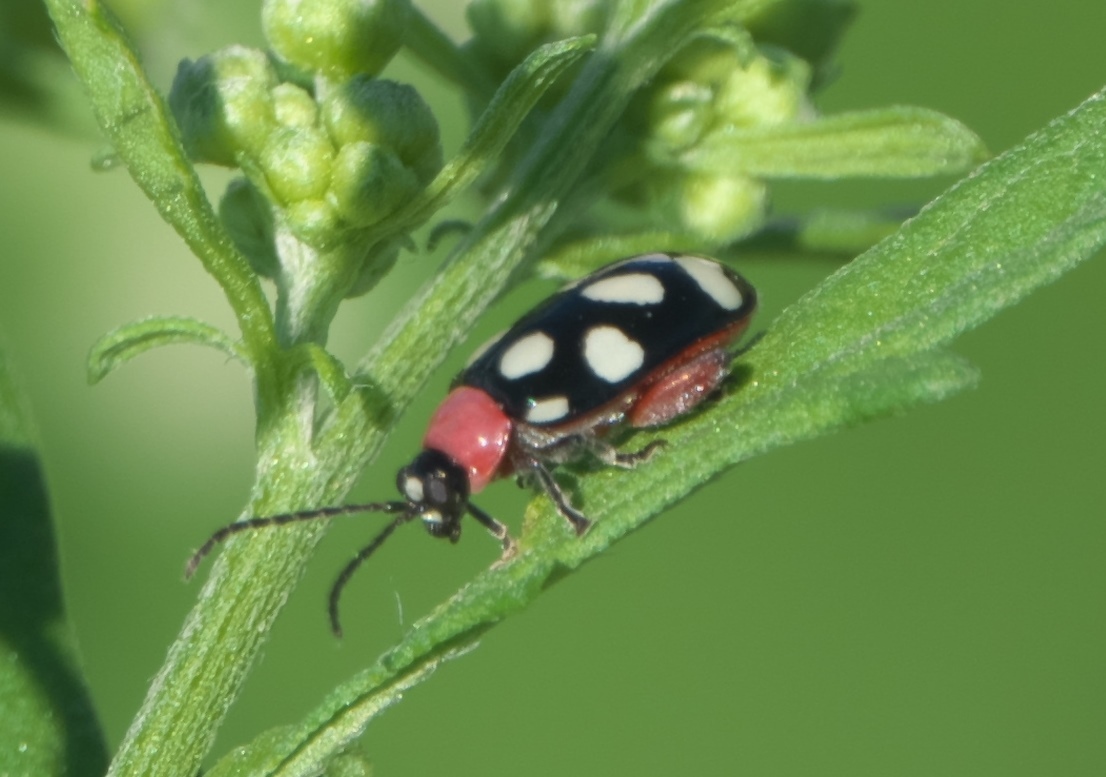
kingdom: Animalia
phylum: Arthropoda
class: Insecta
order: Coleoptera
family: Chrysomelidae
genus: Omophoita
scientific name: Omophoita cyanipennis
